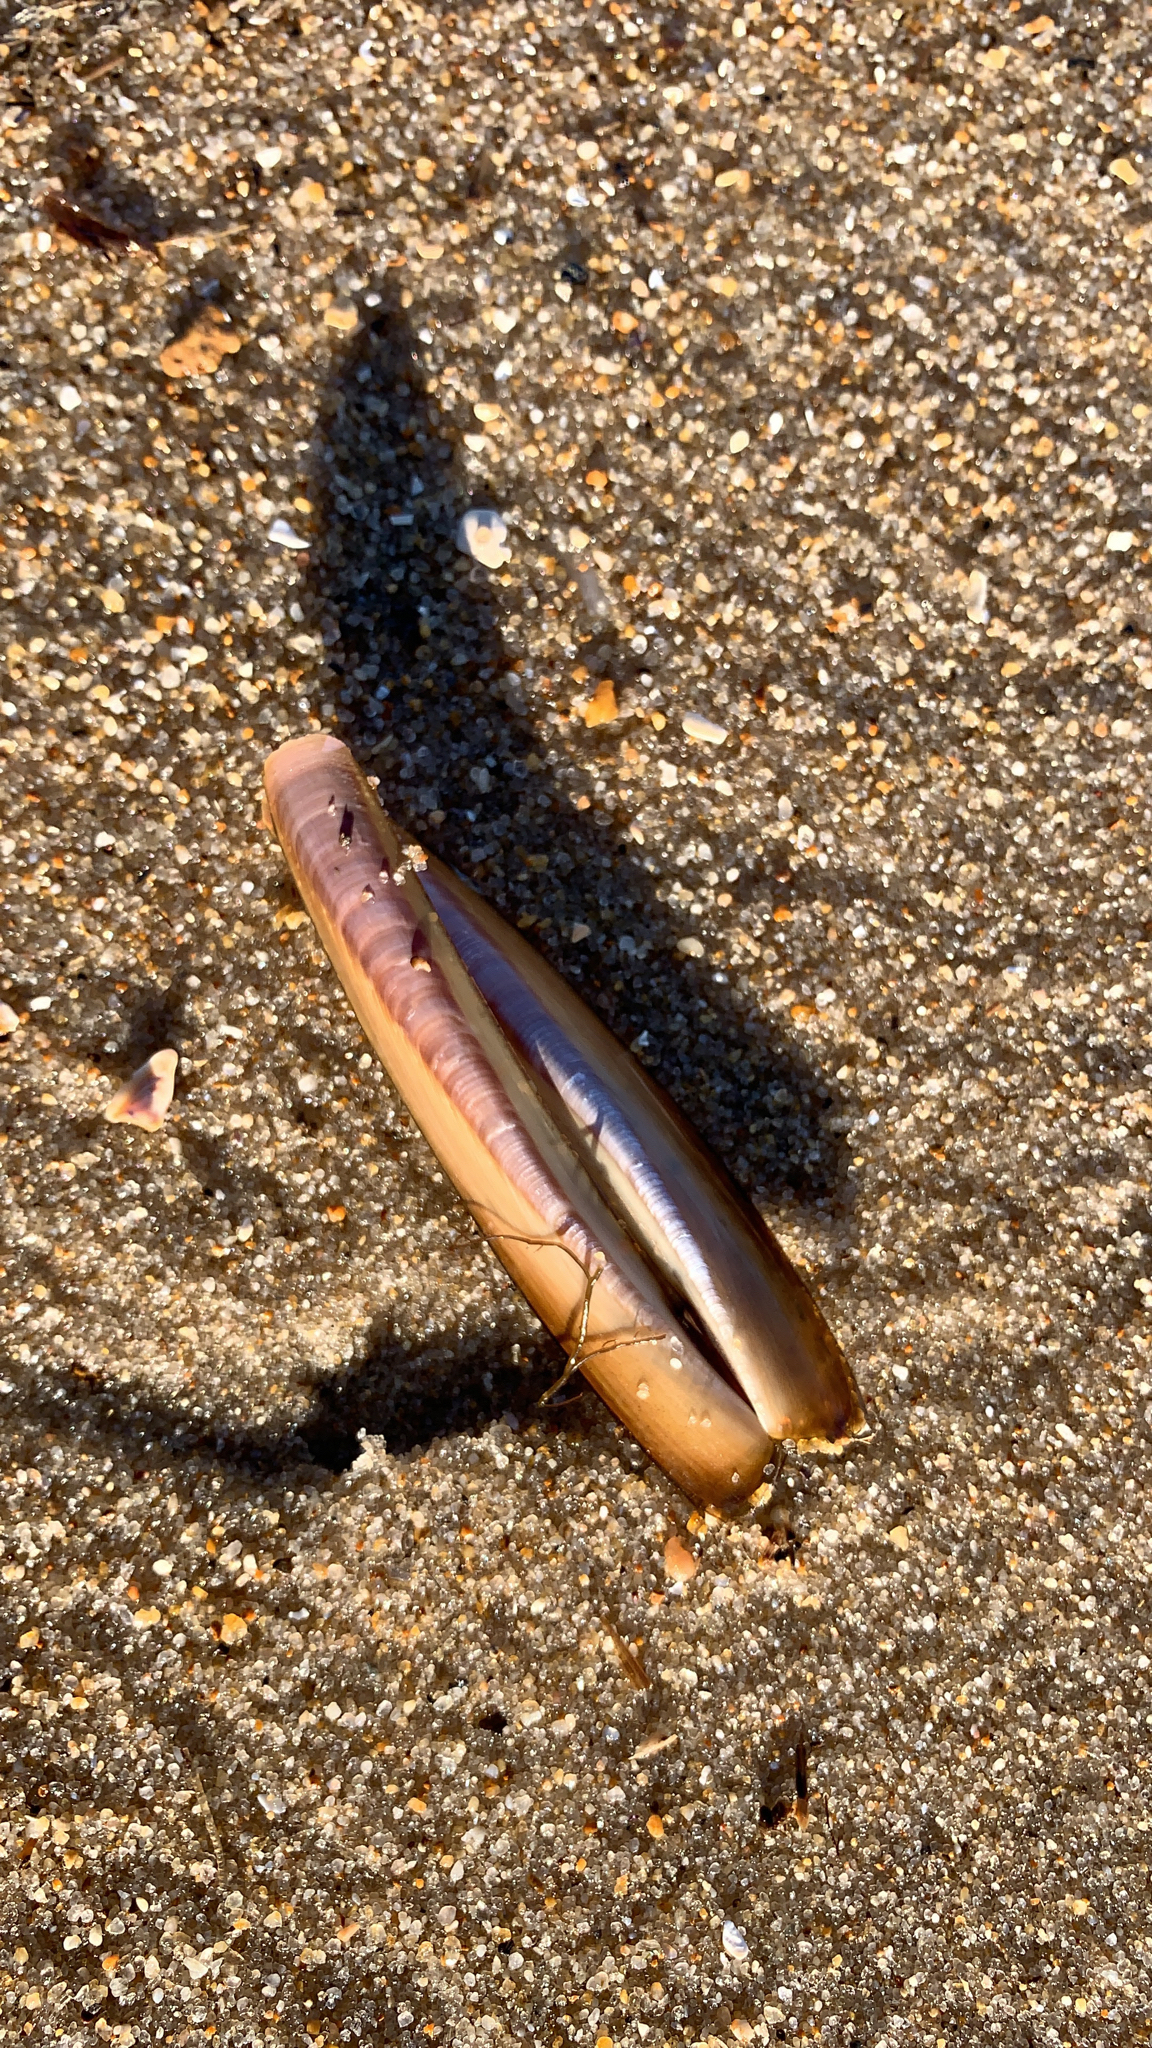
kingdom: Animalia
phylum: Mollusca
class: Bivalvia
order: Adapedonta
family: Pharidae
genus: Ensis
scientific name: Ensis leei
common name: American jack knife clam
